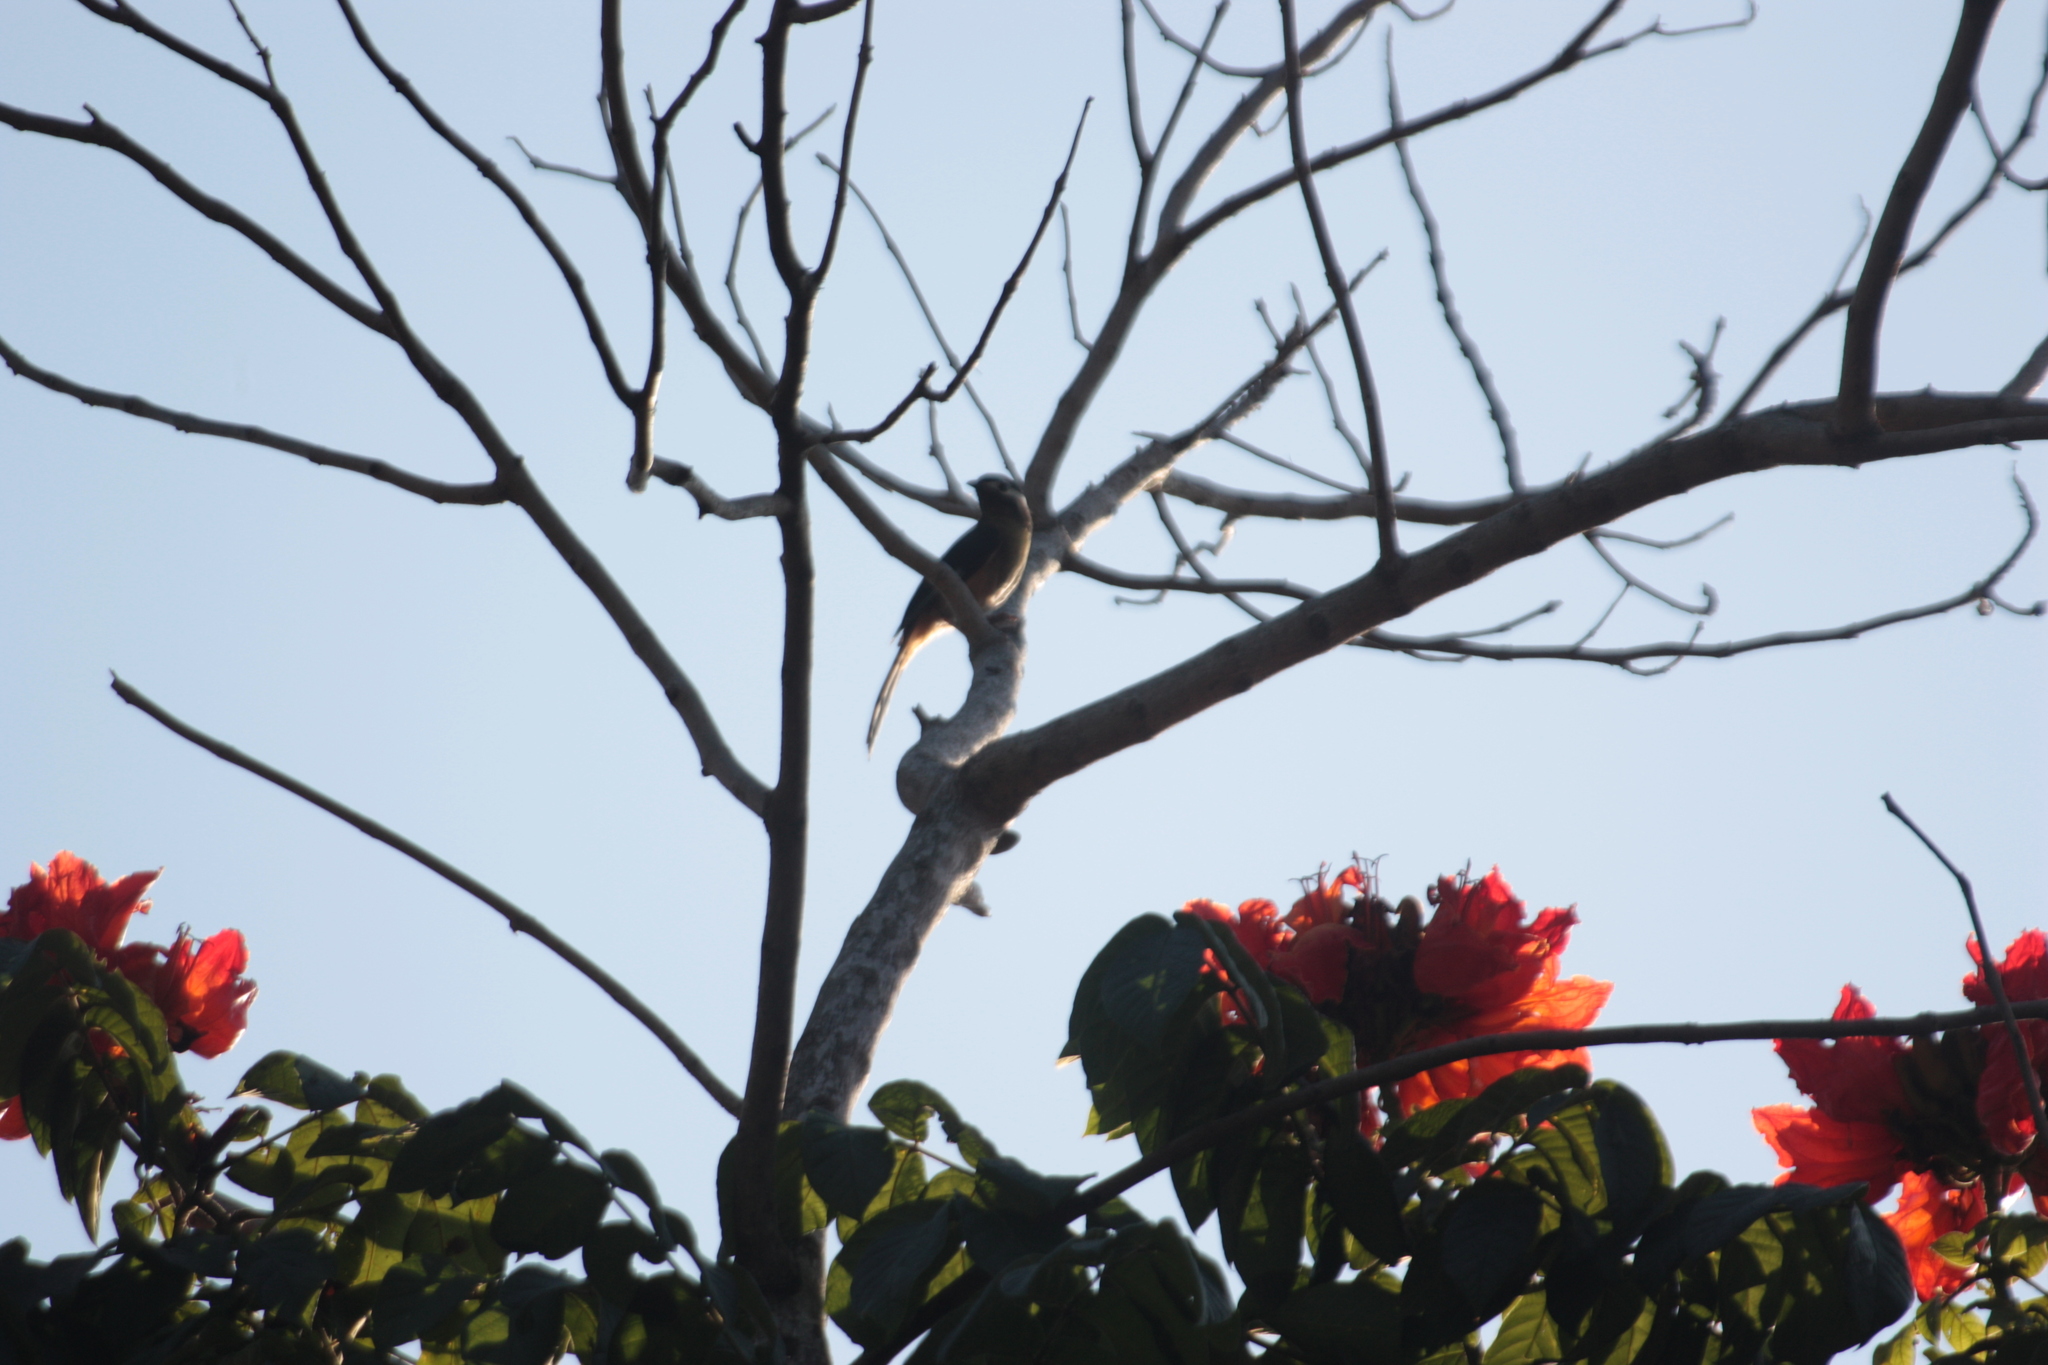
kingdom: Animalia
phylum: Chordata
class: Aves
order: Passeriformes
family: Leiothrichidae
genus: Heterophasia
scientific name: Heterophasia auricularis
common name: White-eared sibia
